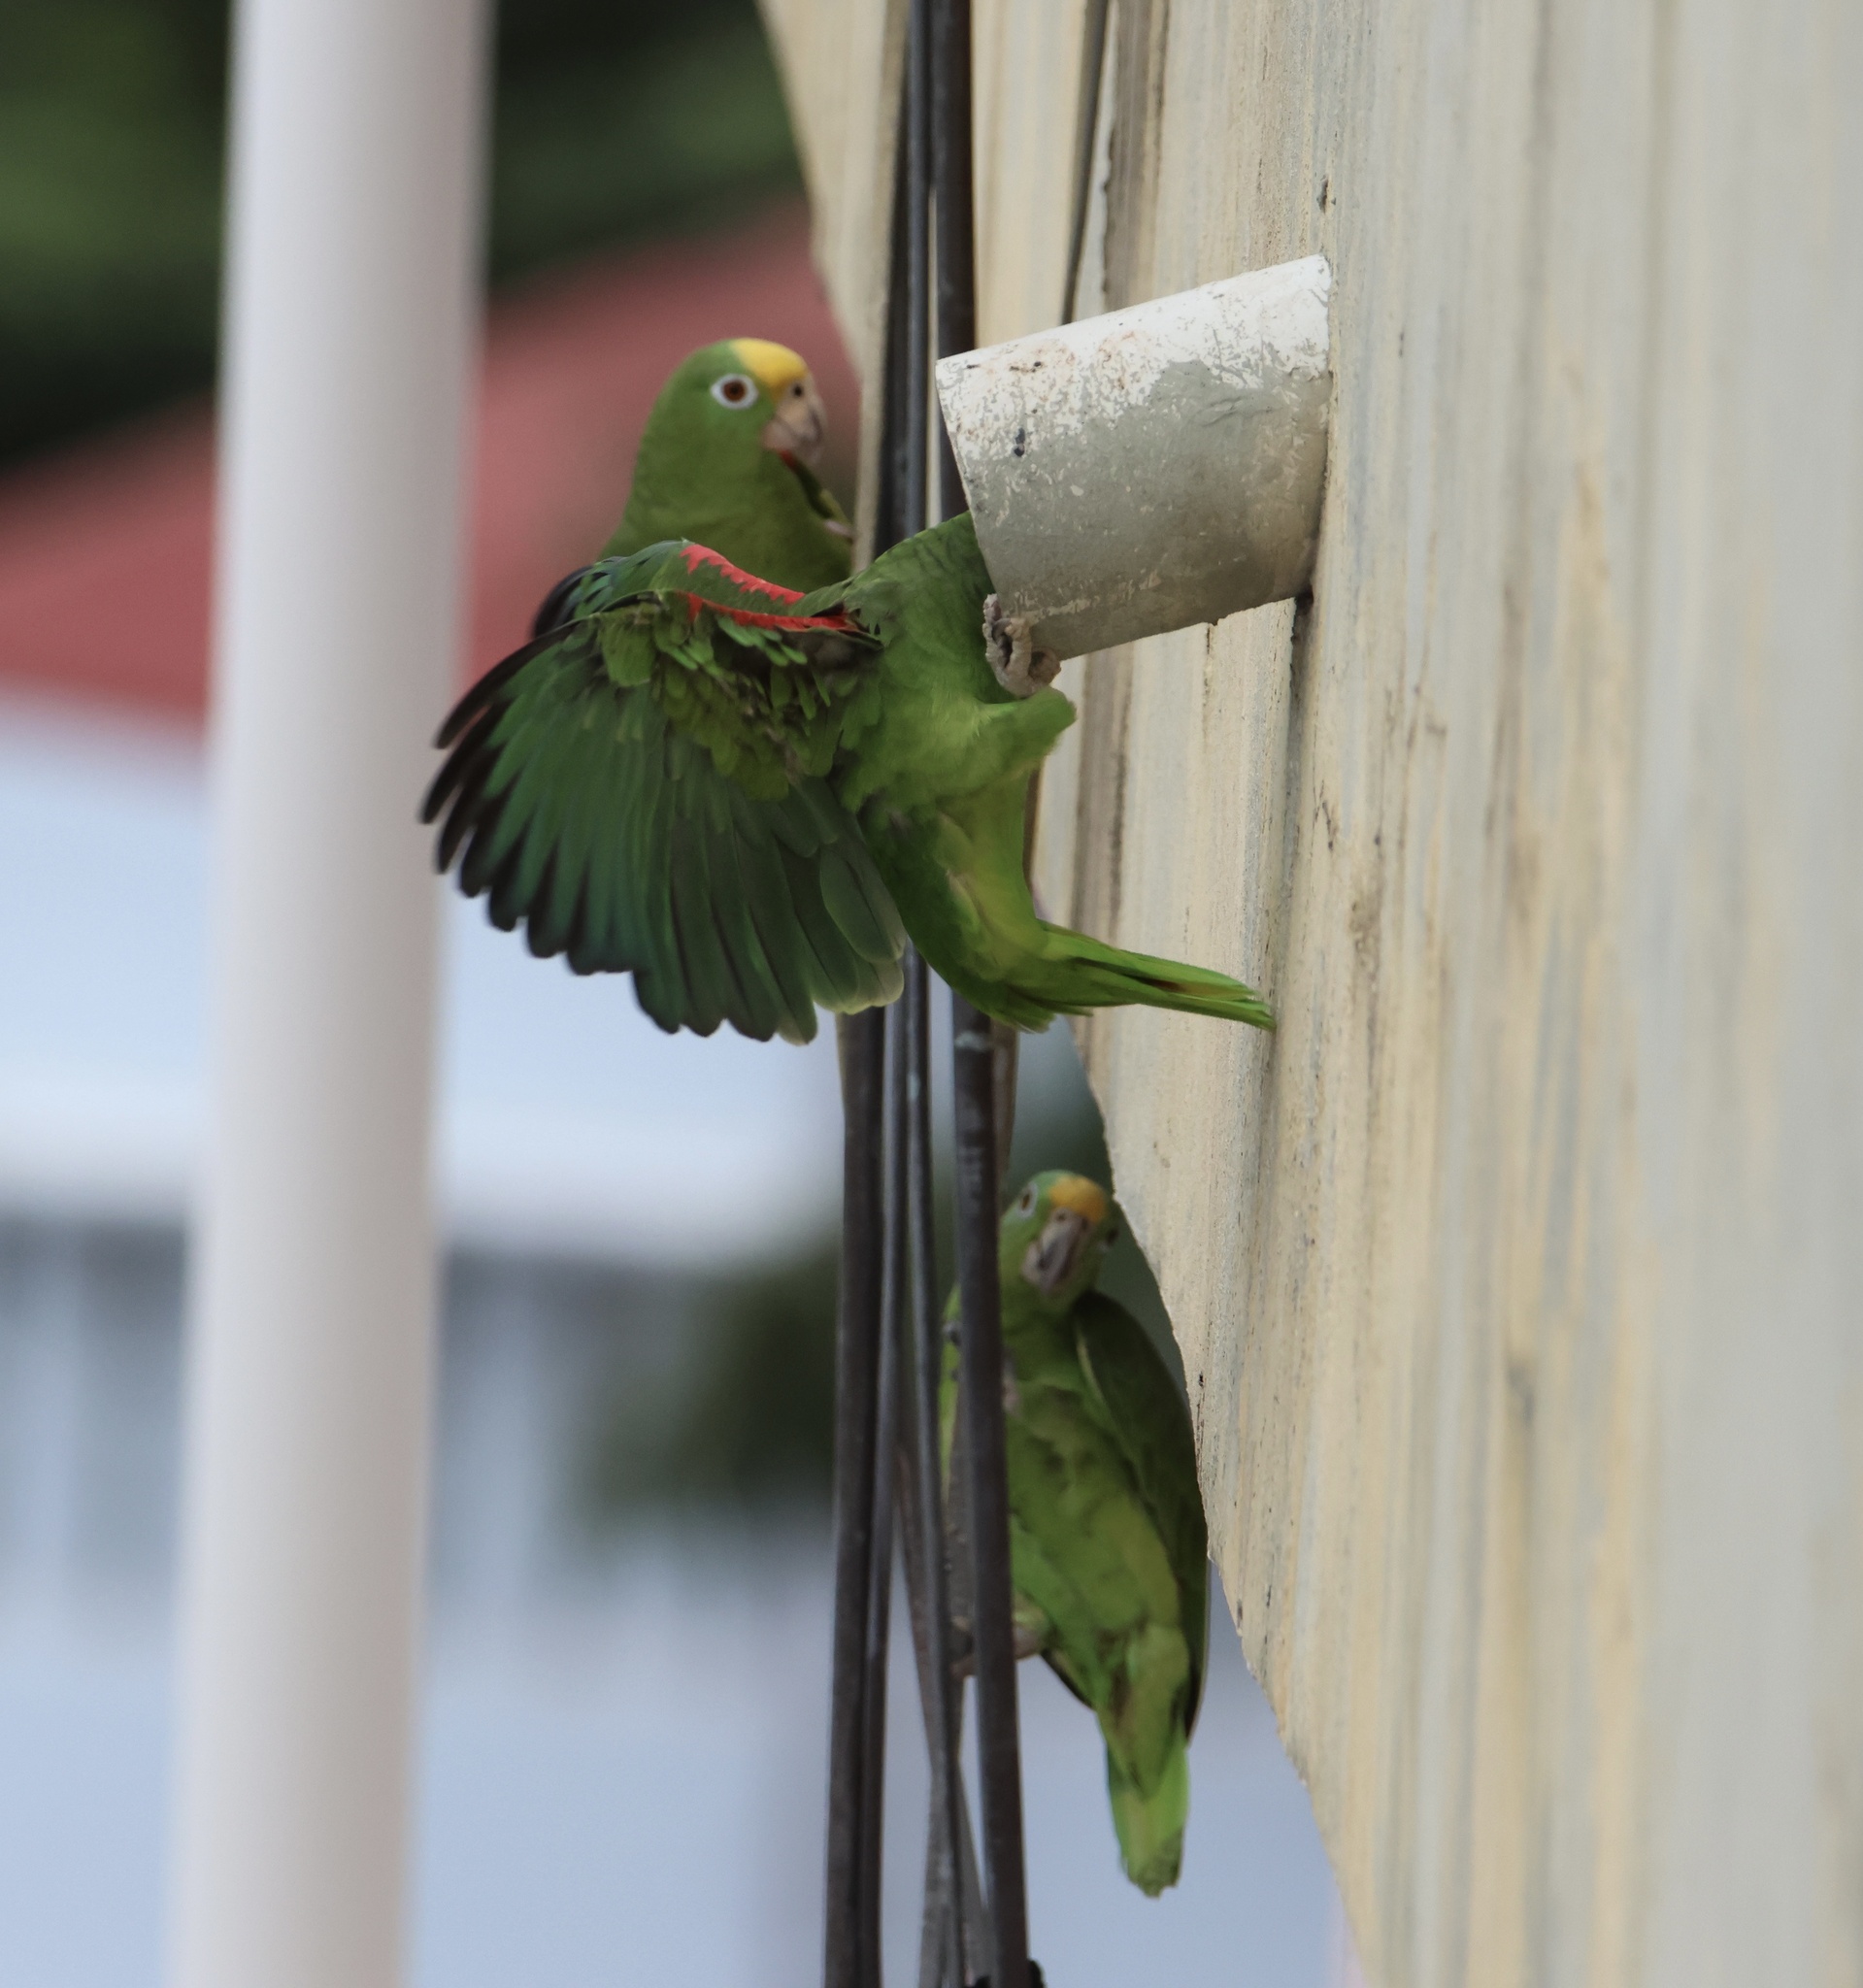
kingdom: Animalia
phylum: Chordata
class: Aves
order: Psittaciformes
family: Psittacidae
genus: Amazona
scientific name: Amazona ochrocephala
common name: Yellow-crowned amazon
